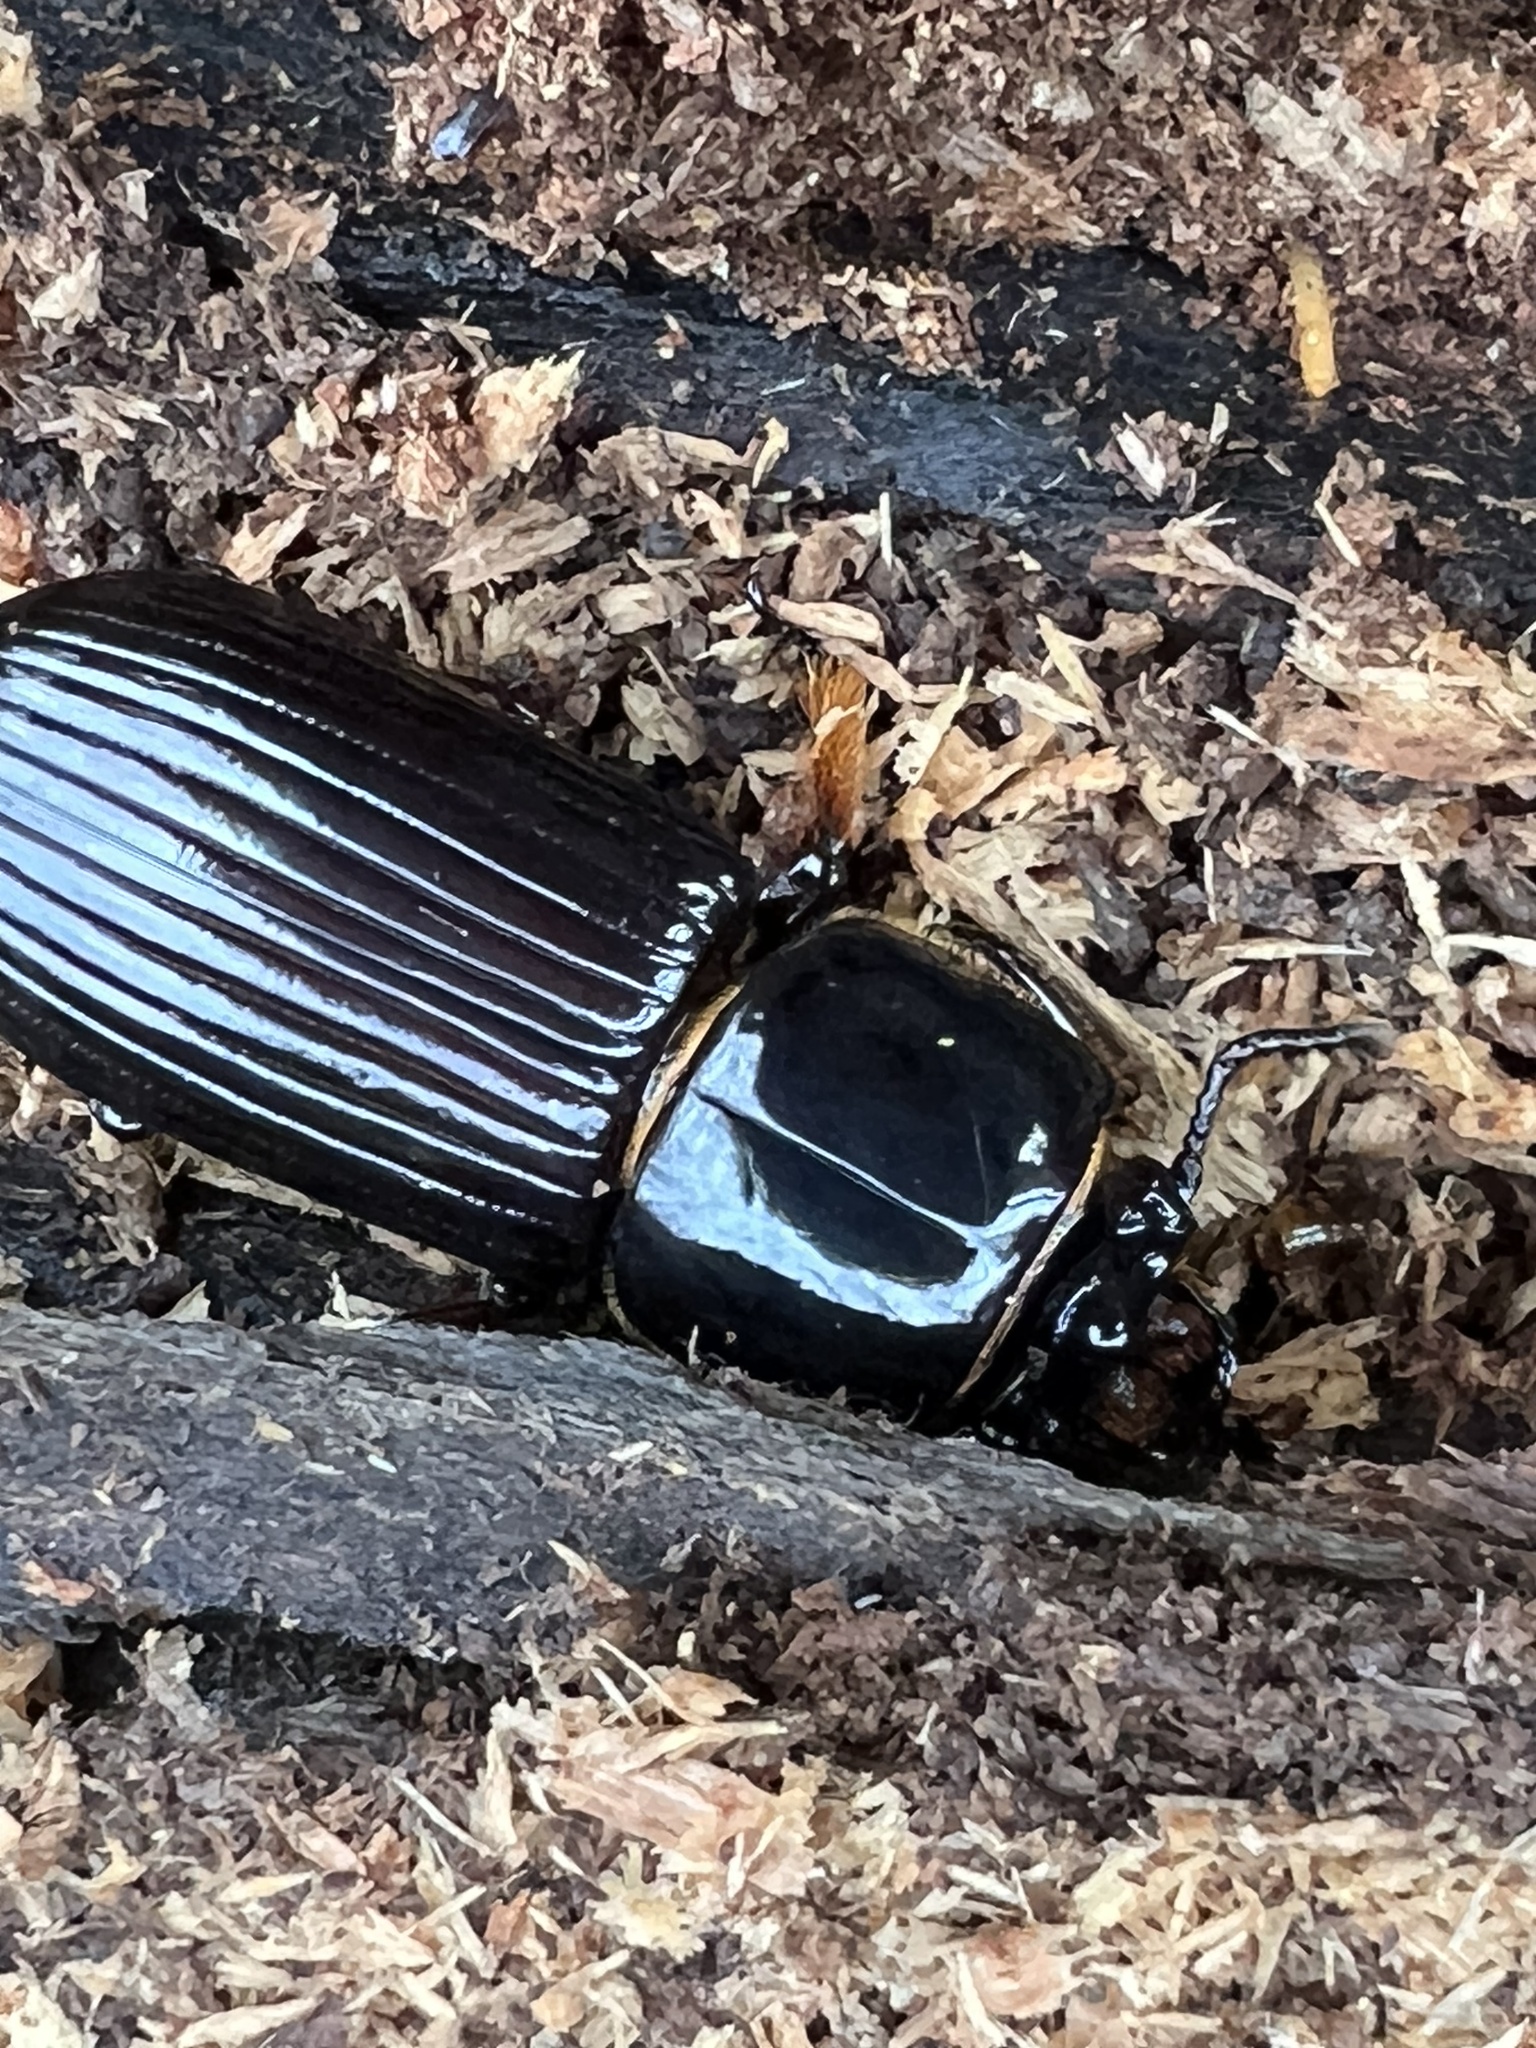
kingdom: Animalia
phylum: Arthropoda
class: Insecta
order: Coleoptera
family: Passalidae
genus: Odontotaenius
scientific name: Odontotaenius disjunctus
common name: Patent leather beetle
